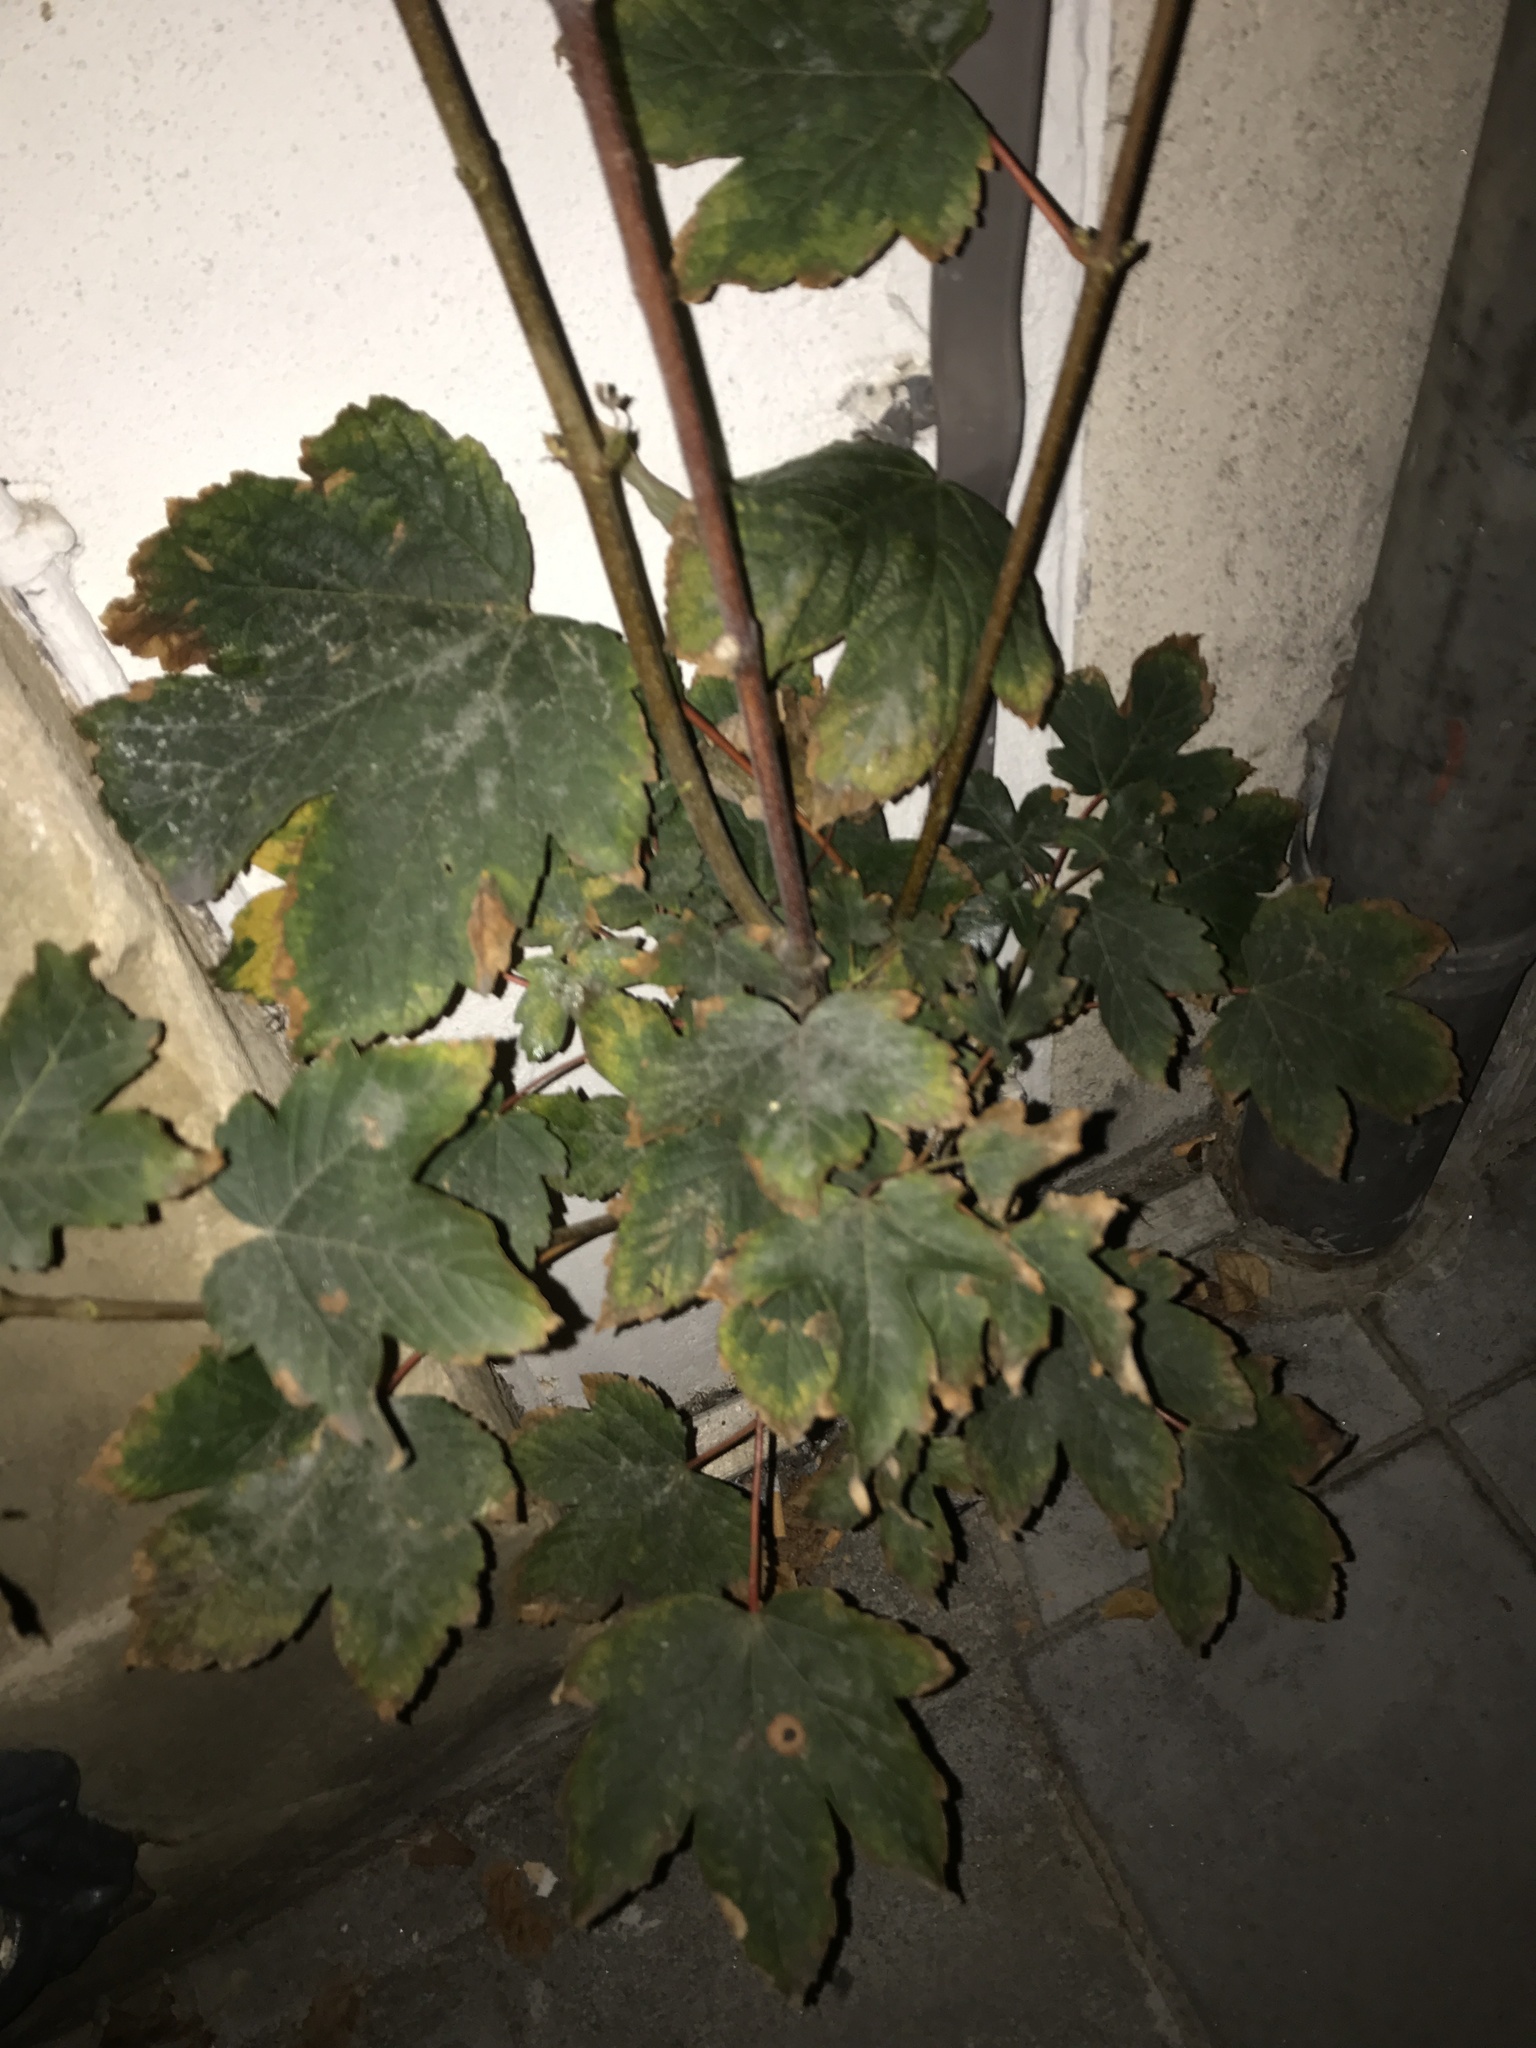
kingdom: Plantae
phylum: Tracheophyta
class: Magnoliopsida
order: Sapindales
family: Sapindaceae
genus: Acer
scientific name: Acer pseudoplatanus
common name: Sycamore
